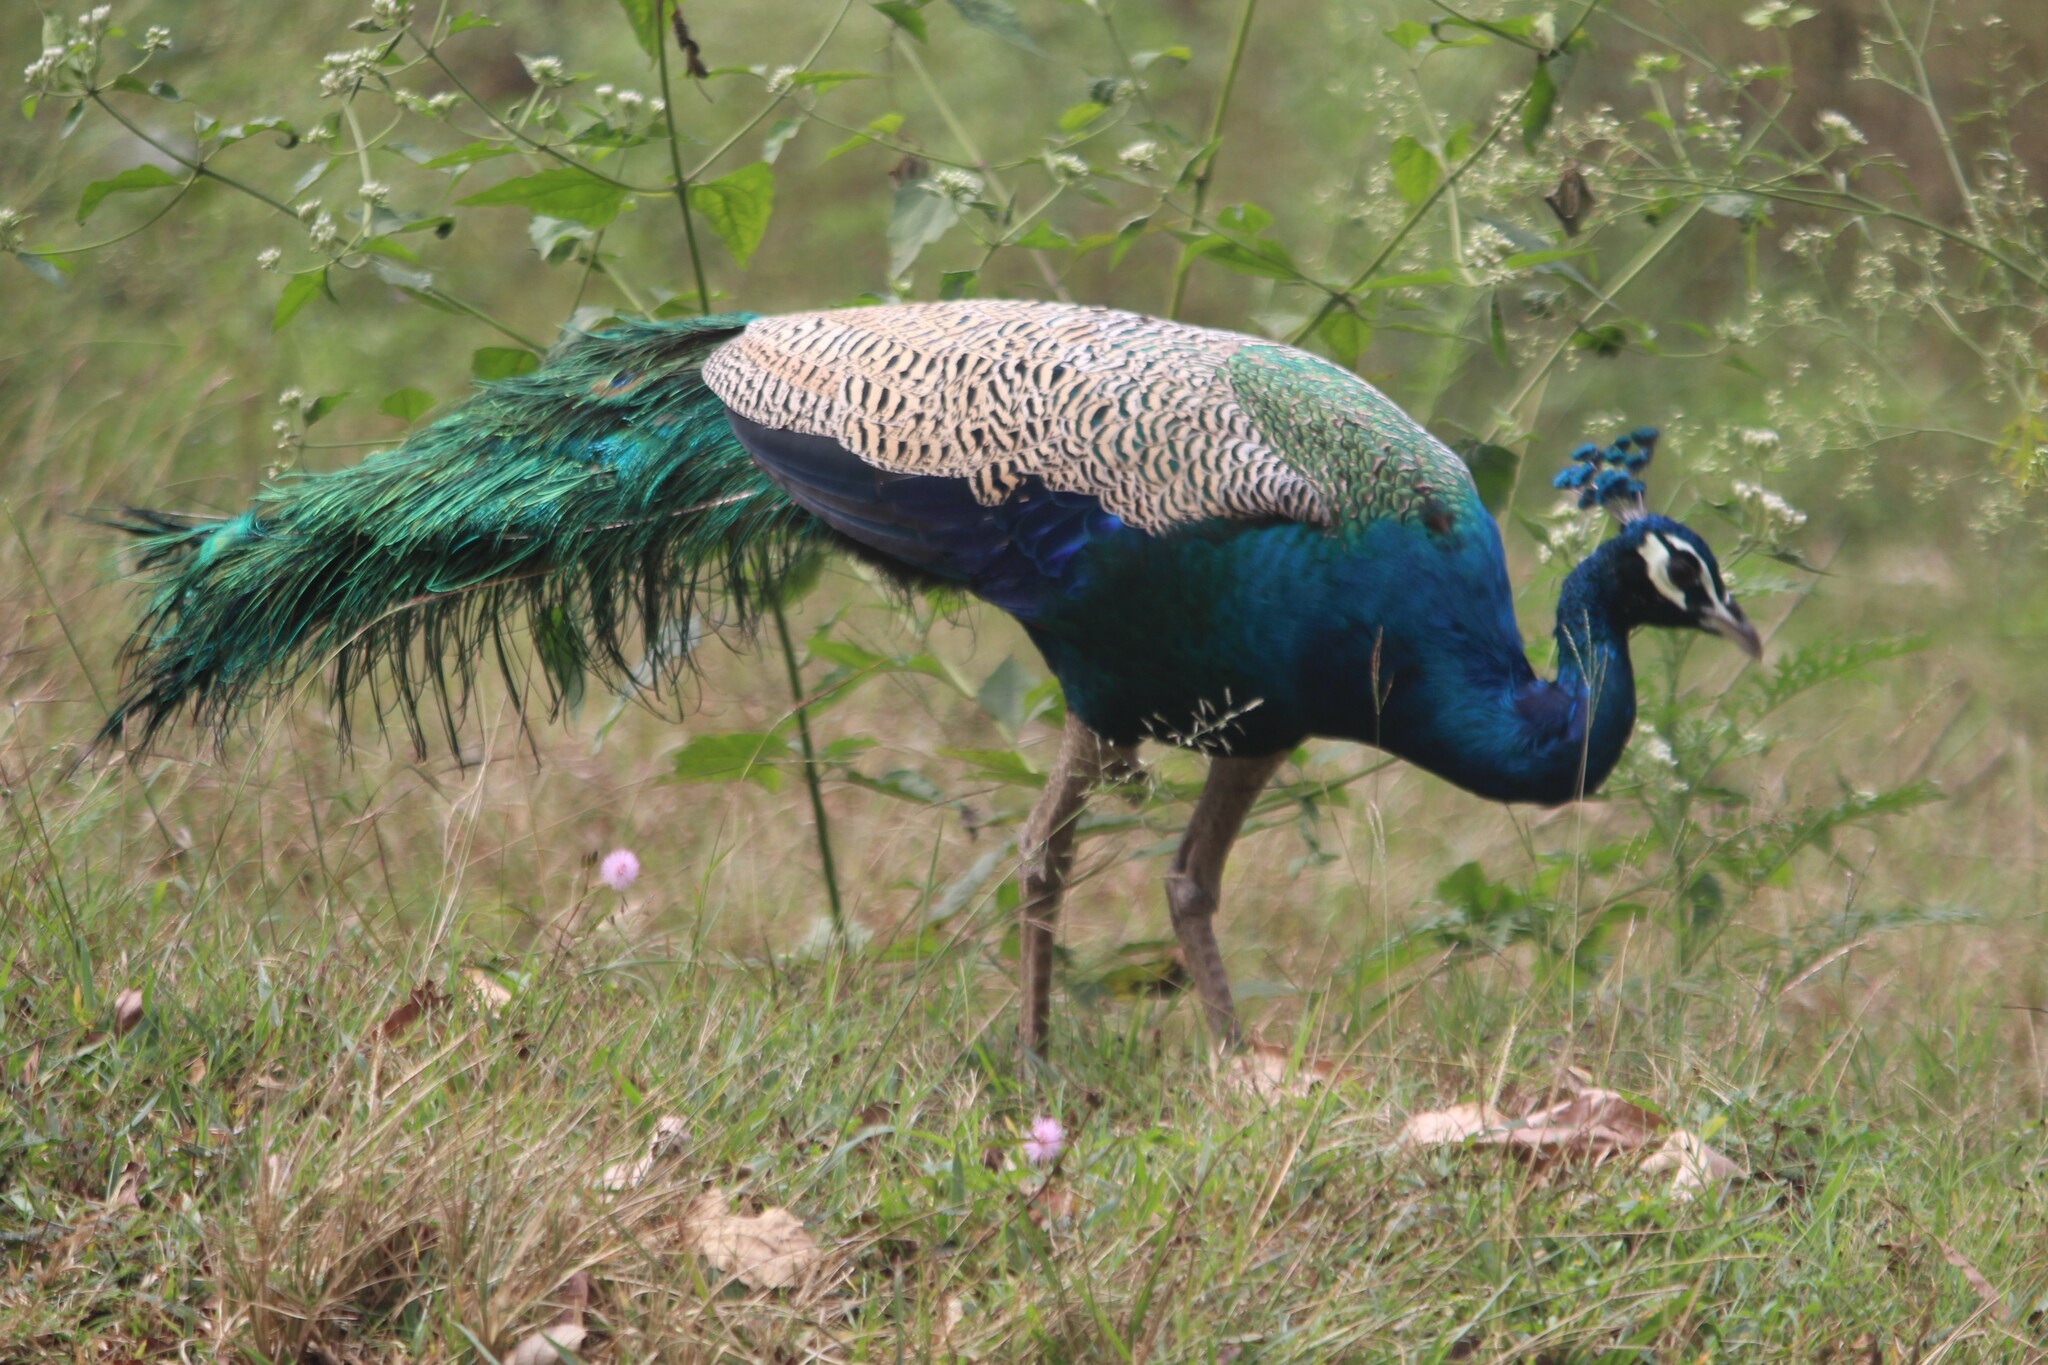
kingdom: Animalia
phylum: Chordata
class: Aves
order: Galliformes
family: Phasianidae
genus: Pavo
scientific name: Pavo cristatus
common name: Indian peafowl
